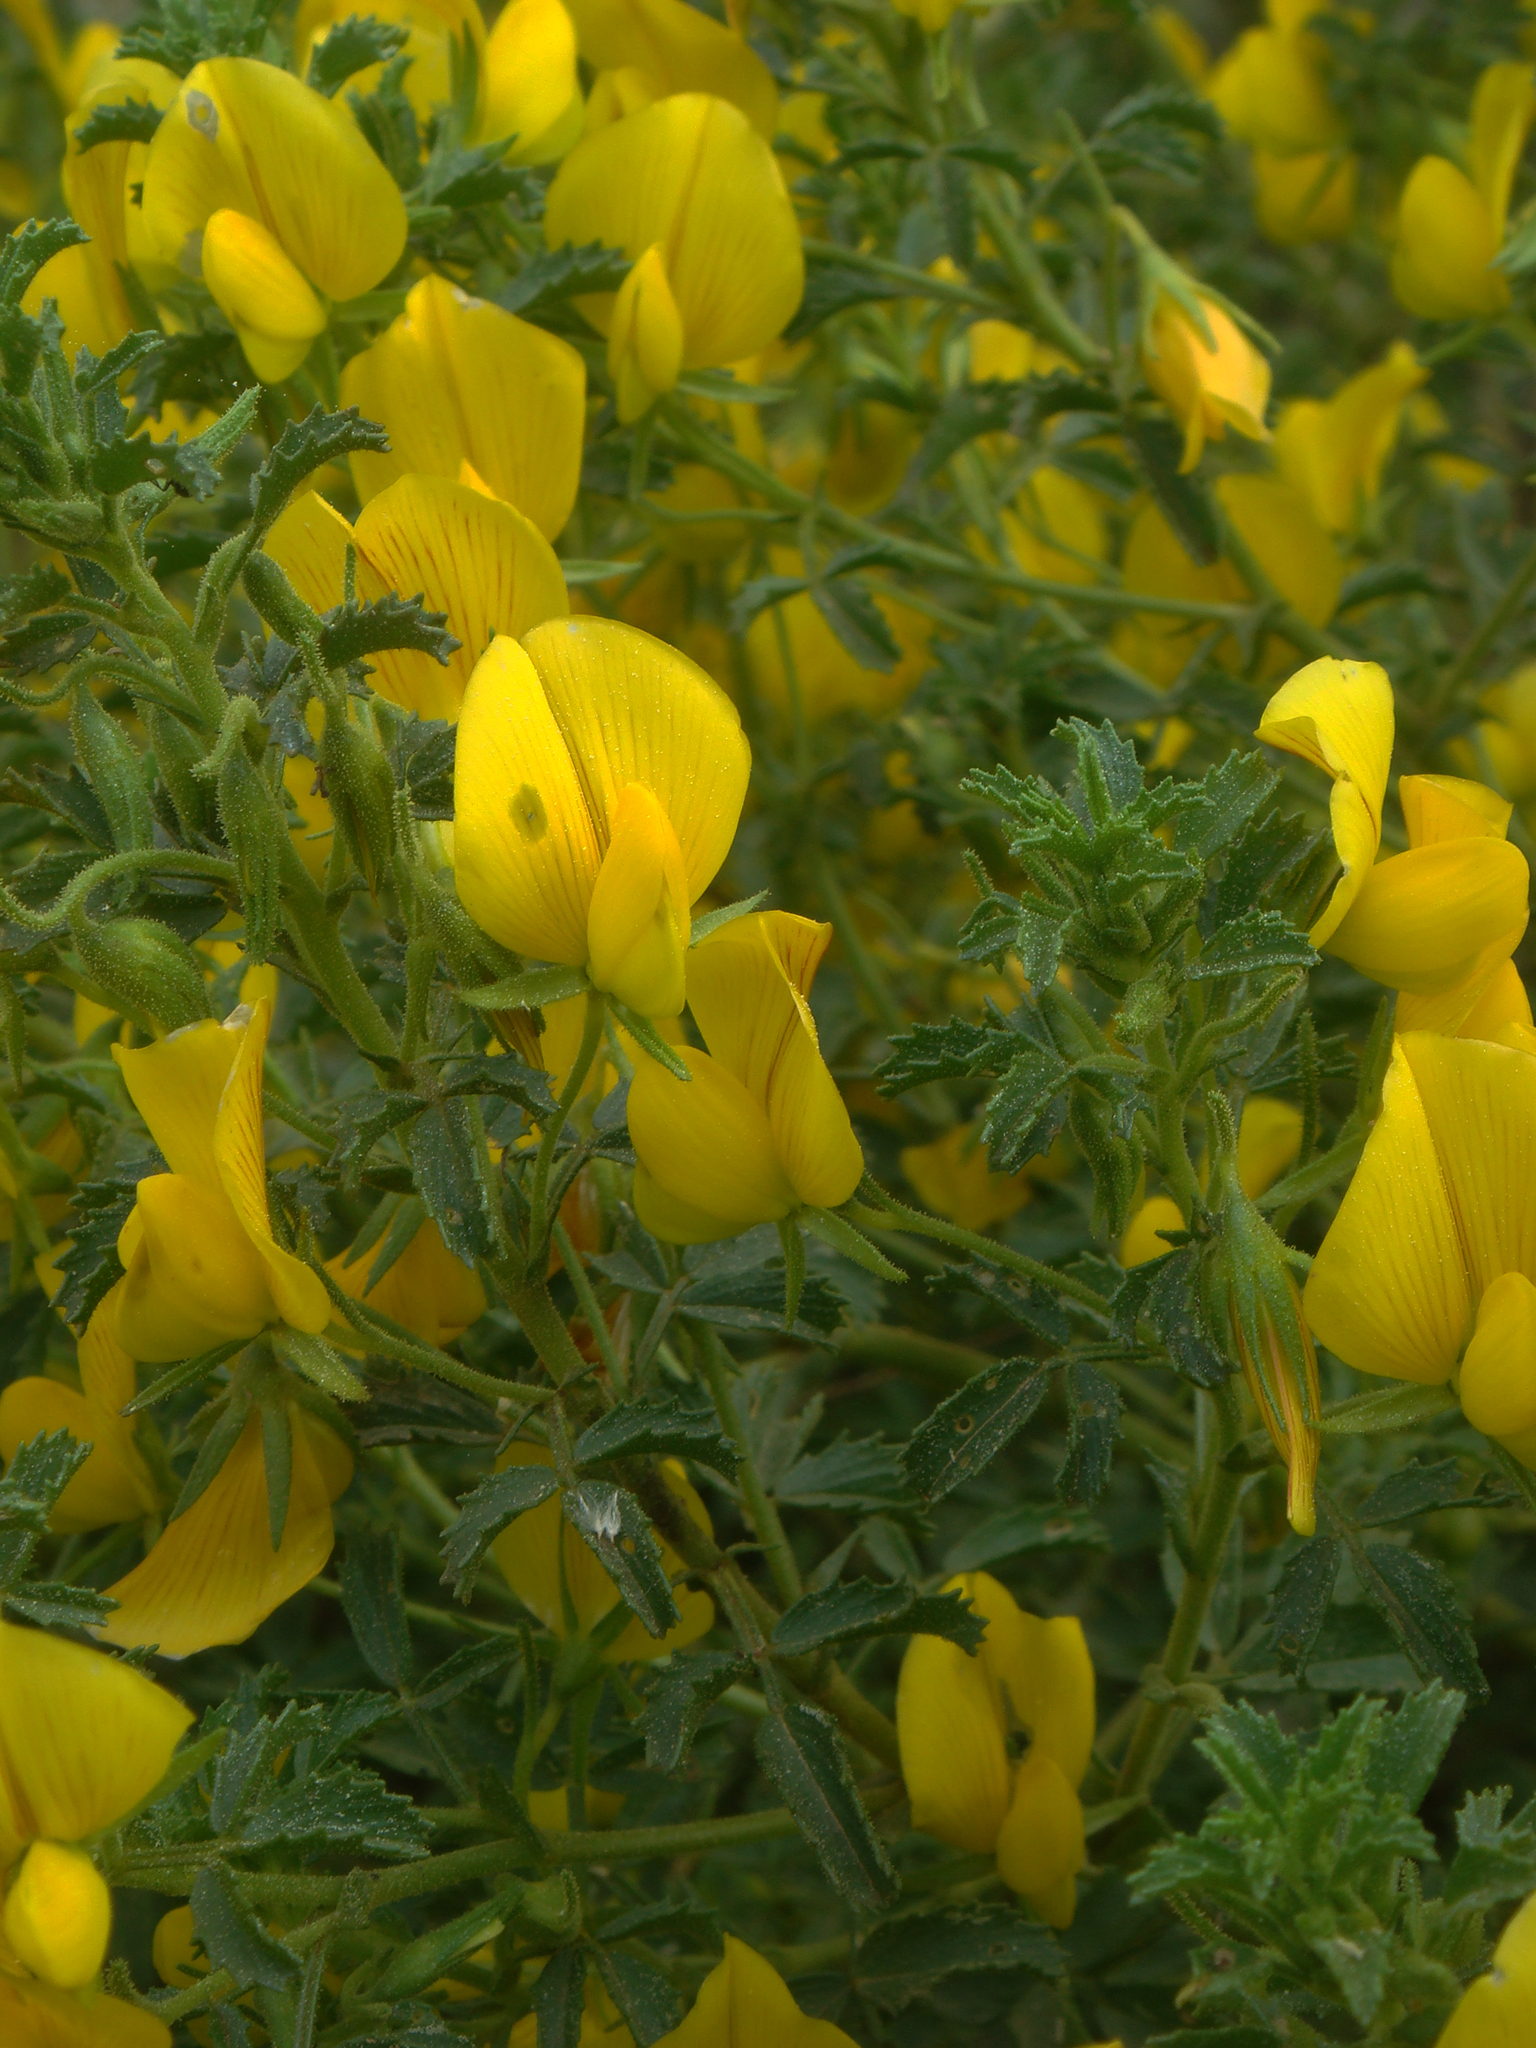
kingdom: Plantae
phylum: Tracheophyta
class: Magnoliopsida
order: Fabales
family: Fabaceae
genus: Ononis
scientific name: Ononis natrix
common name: Yellow restharrow
